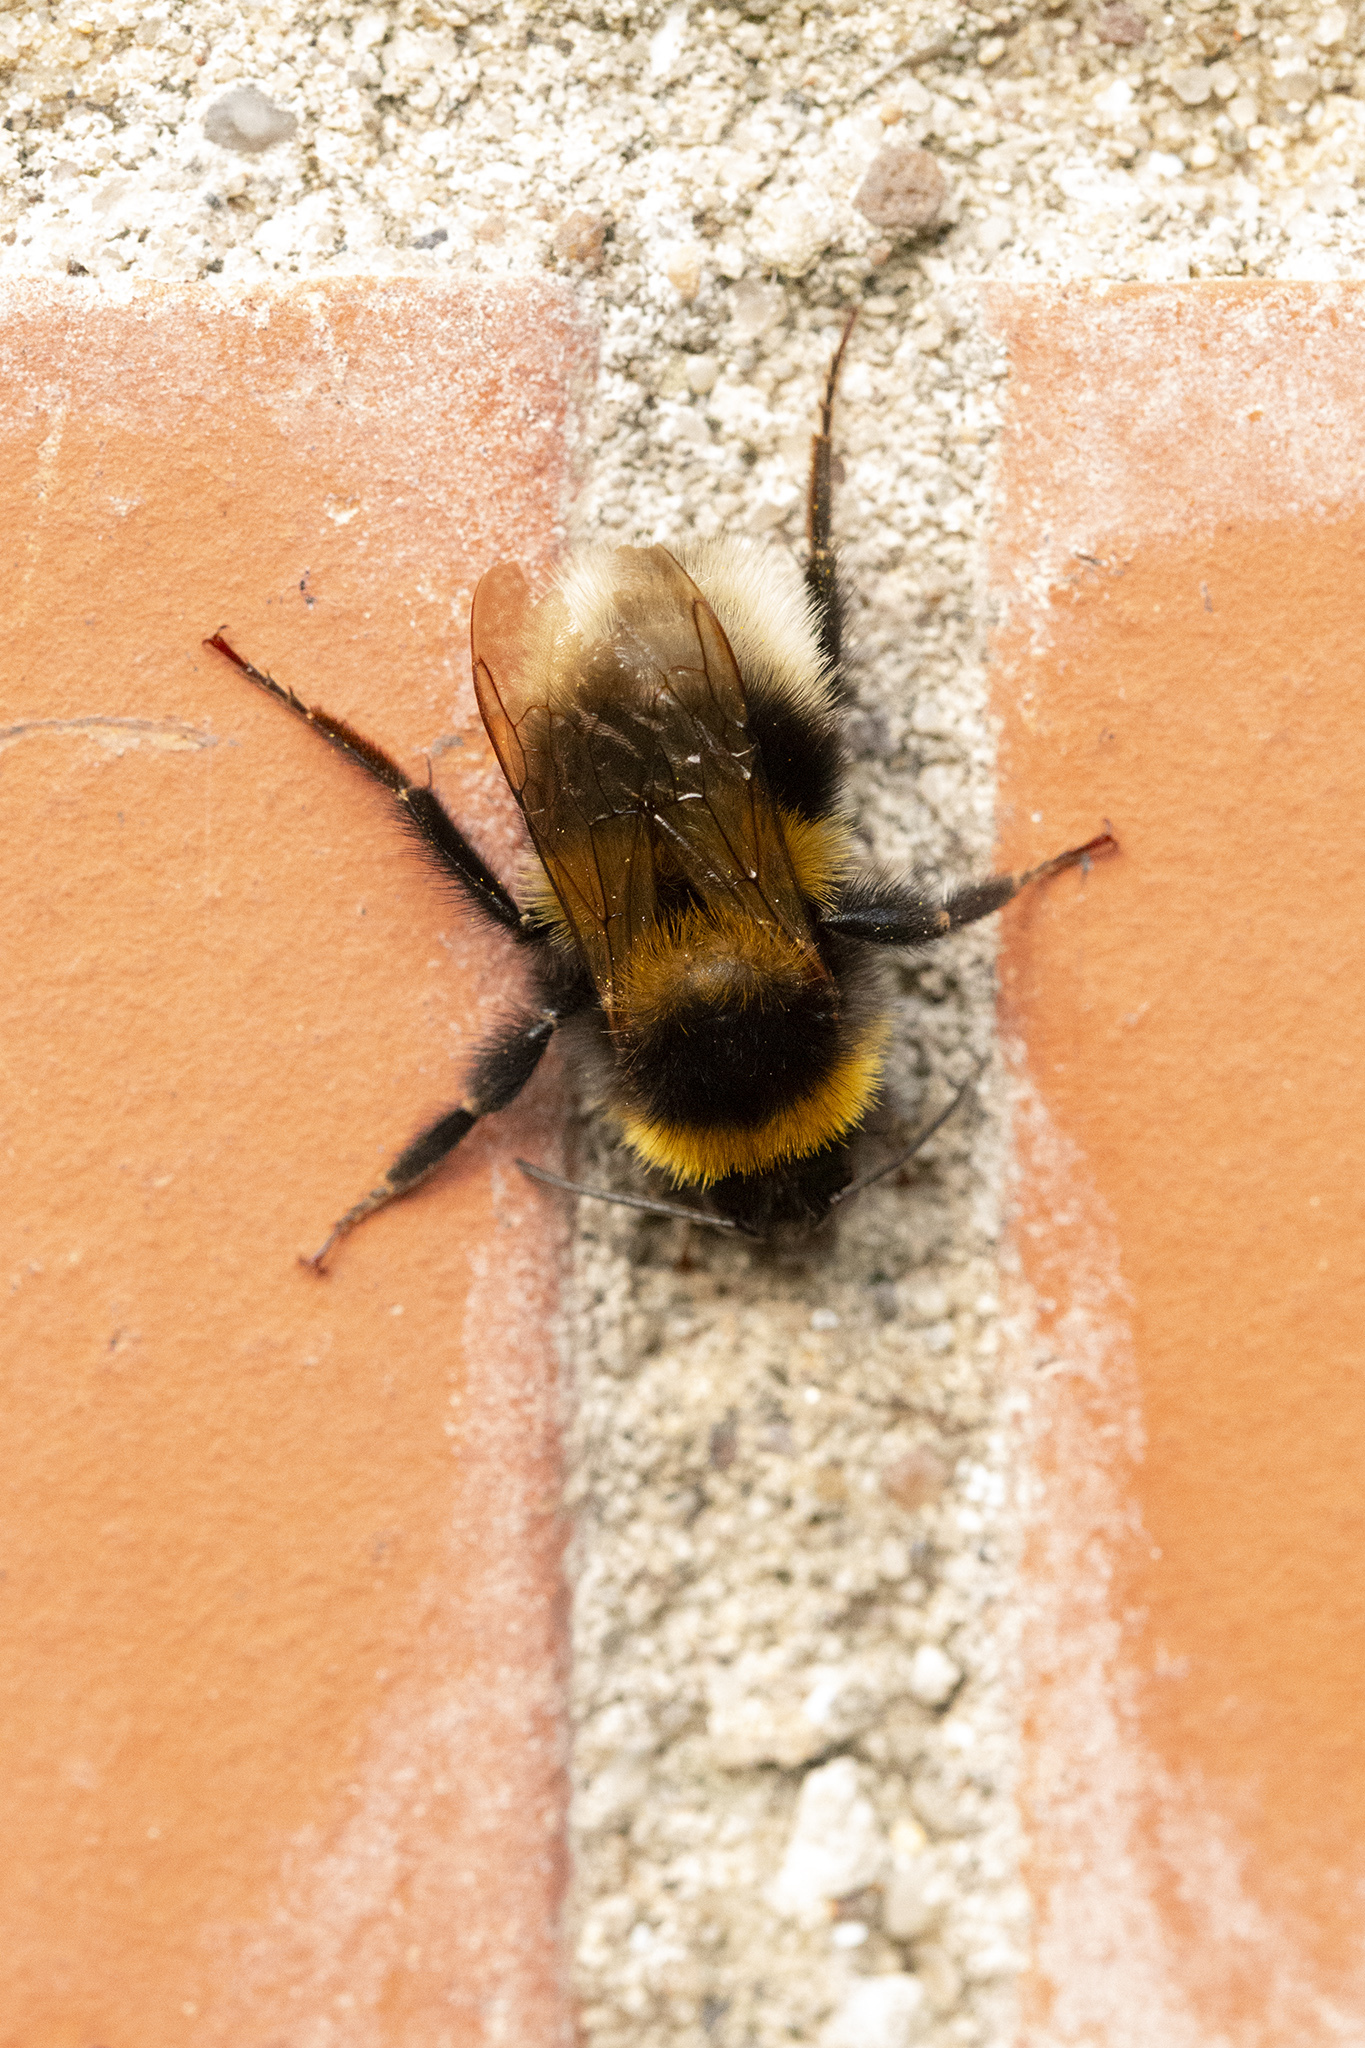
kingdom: Animalia
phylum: Arthropoda
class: Insecta
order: Hymenoptera
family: Apidae
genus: Bombus
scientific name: Bombus hortorum
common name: Garden bumblebee
